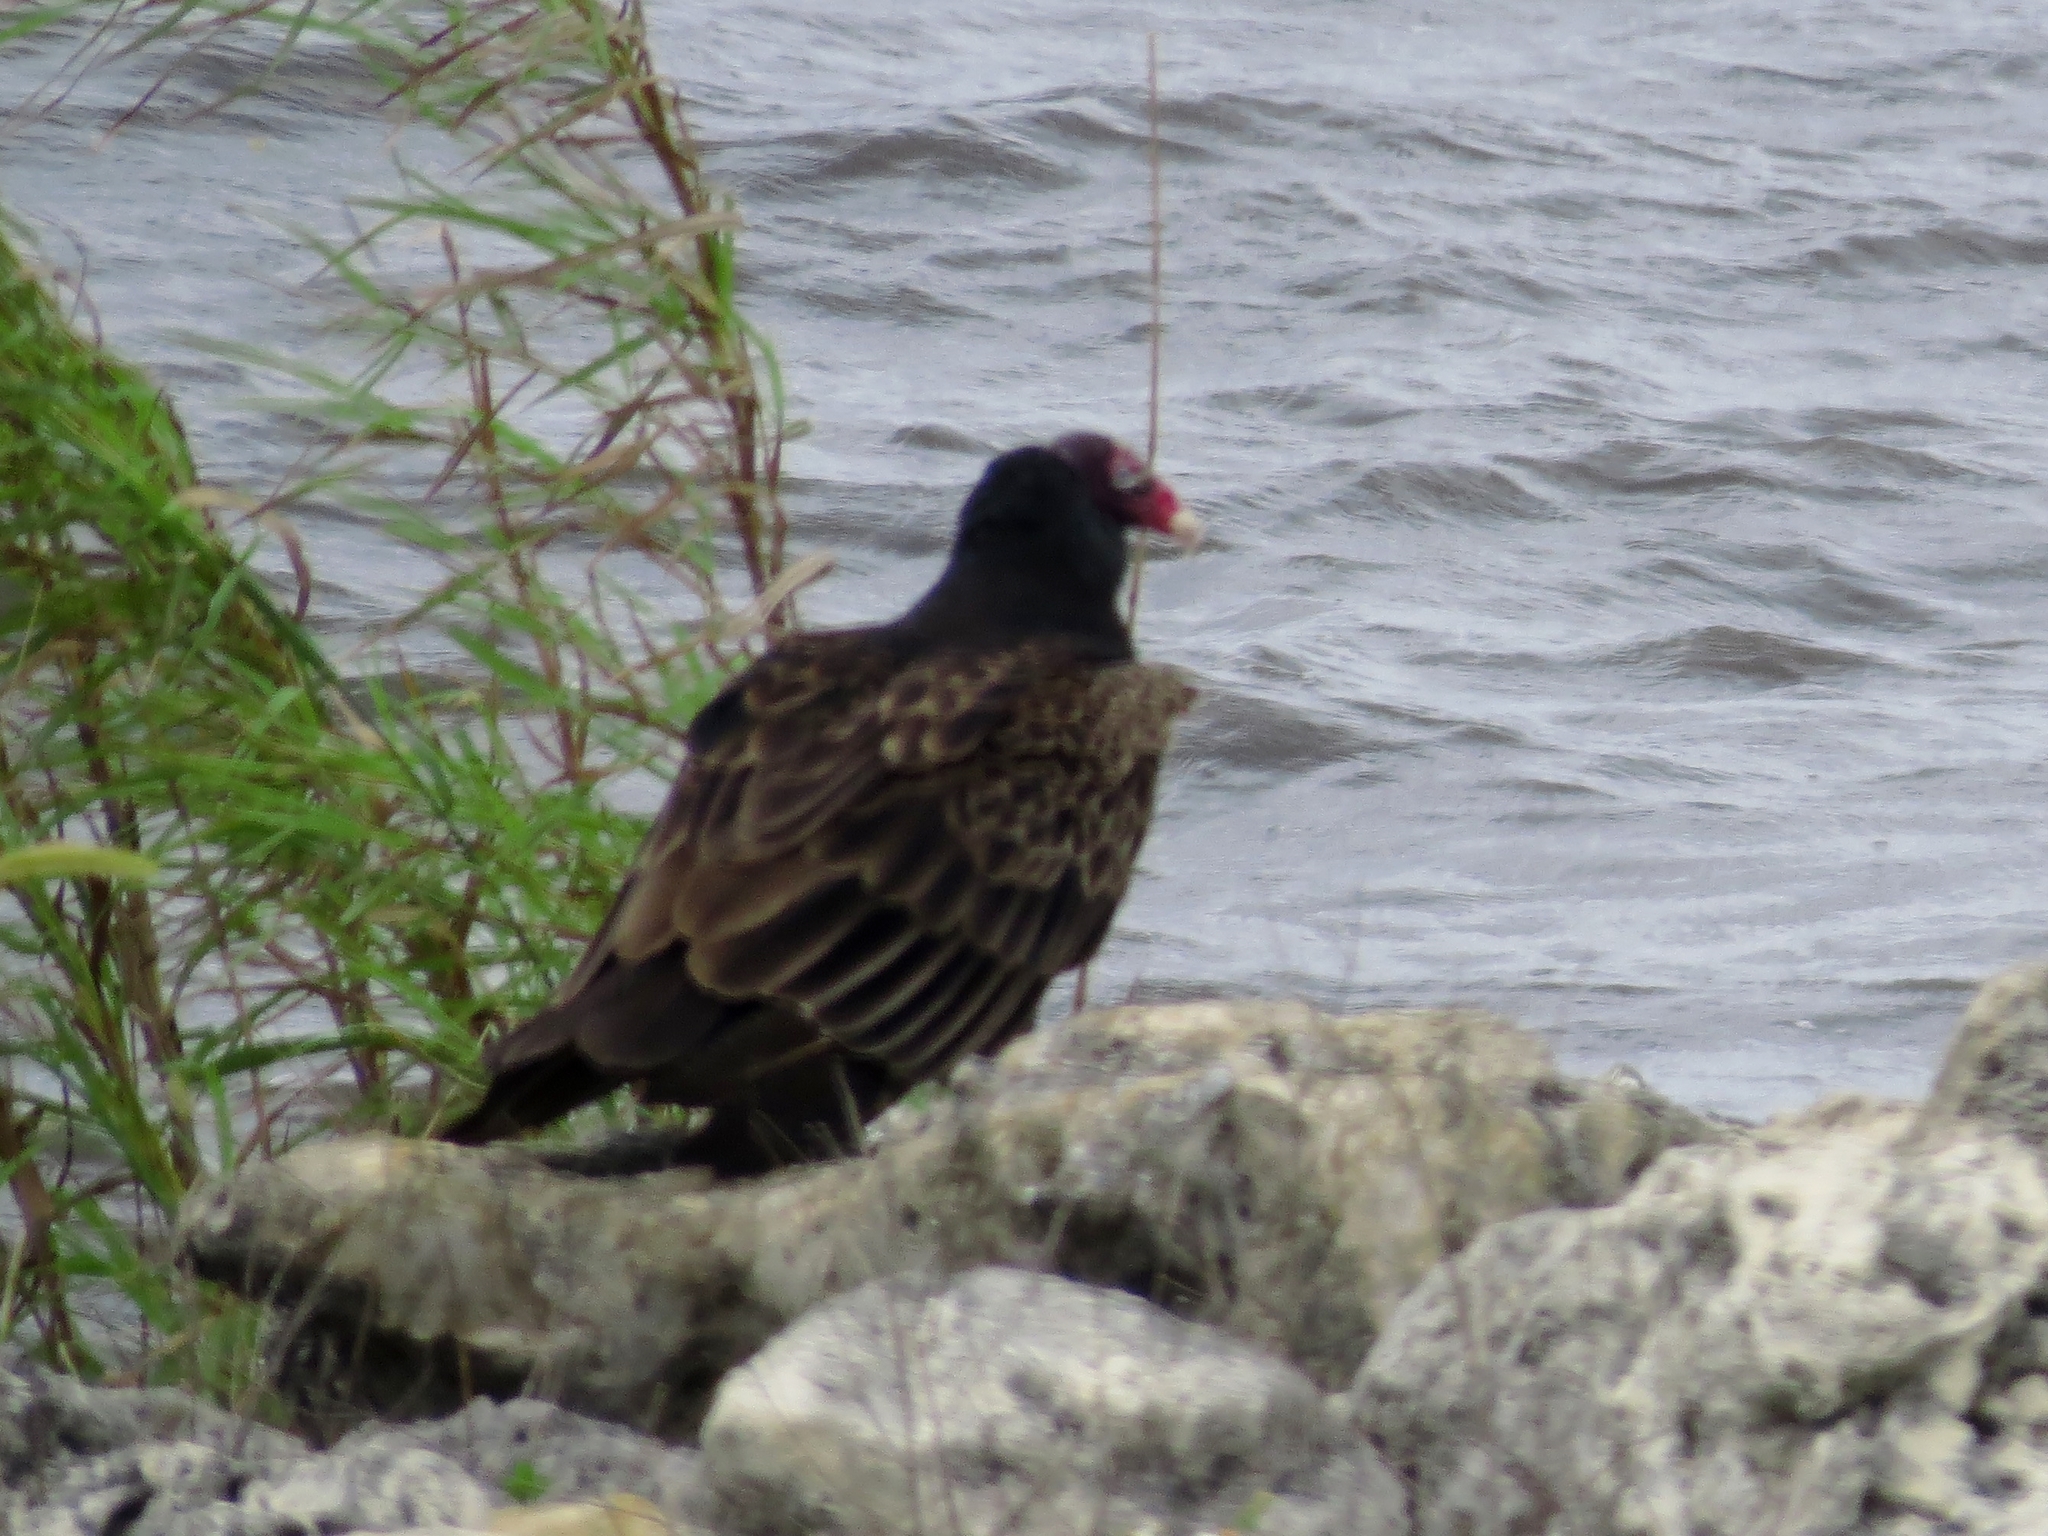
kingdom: Animalia
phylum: Chordata
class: Aves
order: Accipitriformes
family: Cathartidae
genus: Cathartes
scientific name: Cathartes aura
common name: Turkey vulture
